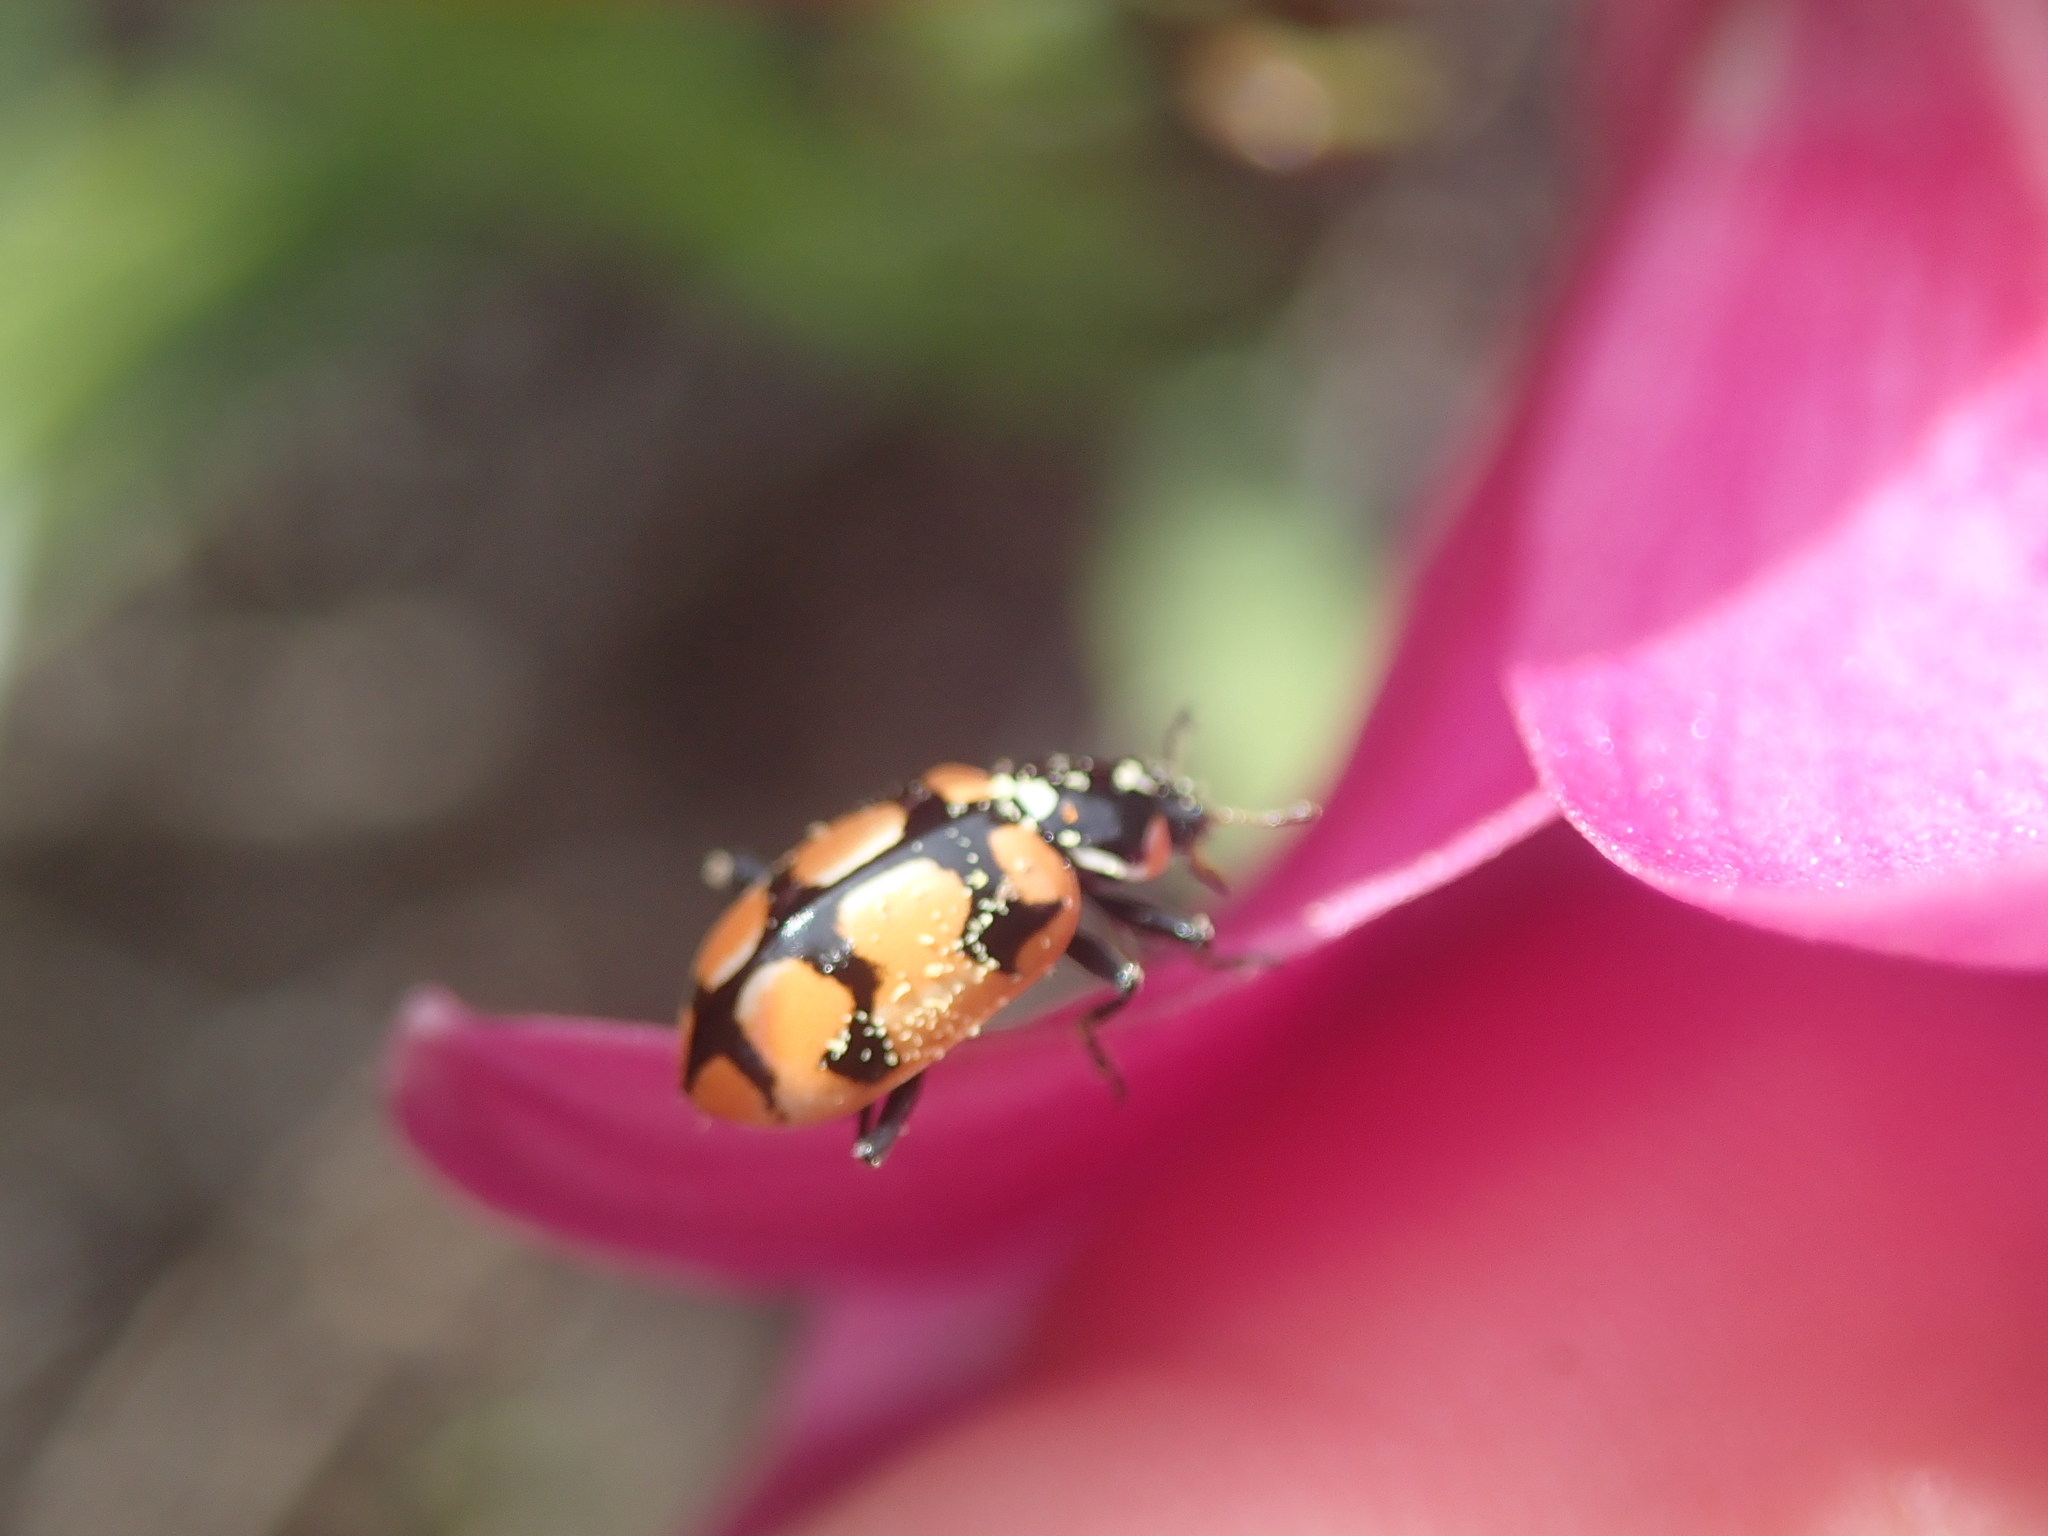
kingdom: Animalia
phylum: Arthropoda
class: Insecta
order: Coleoptera
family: Coccinellidae
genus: Eriopis
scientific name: Eriopis chilensis
